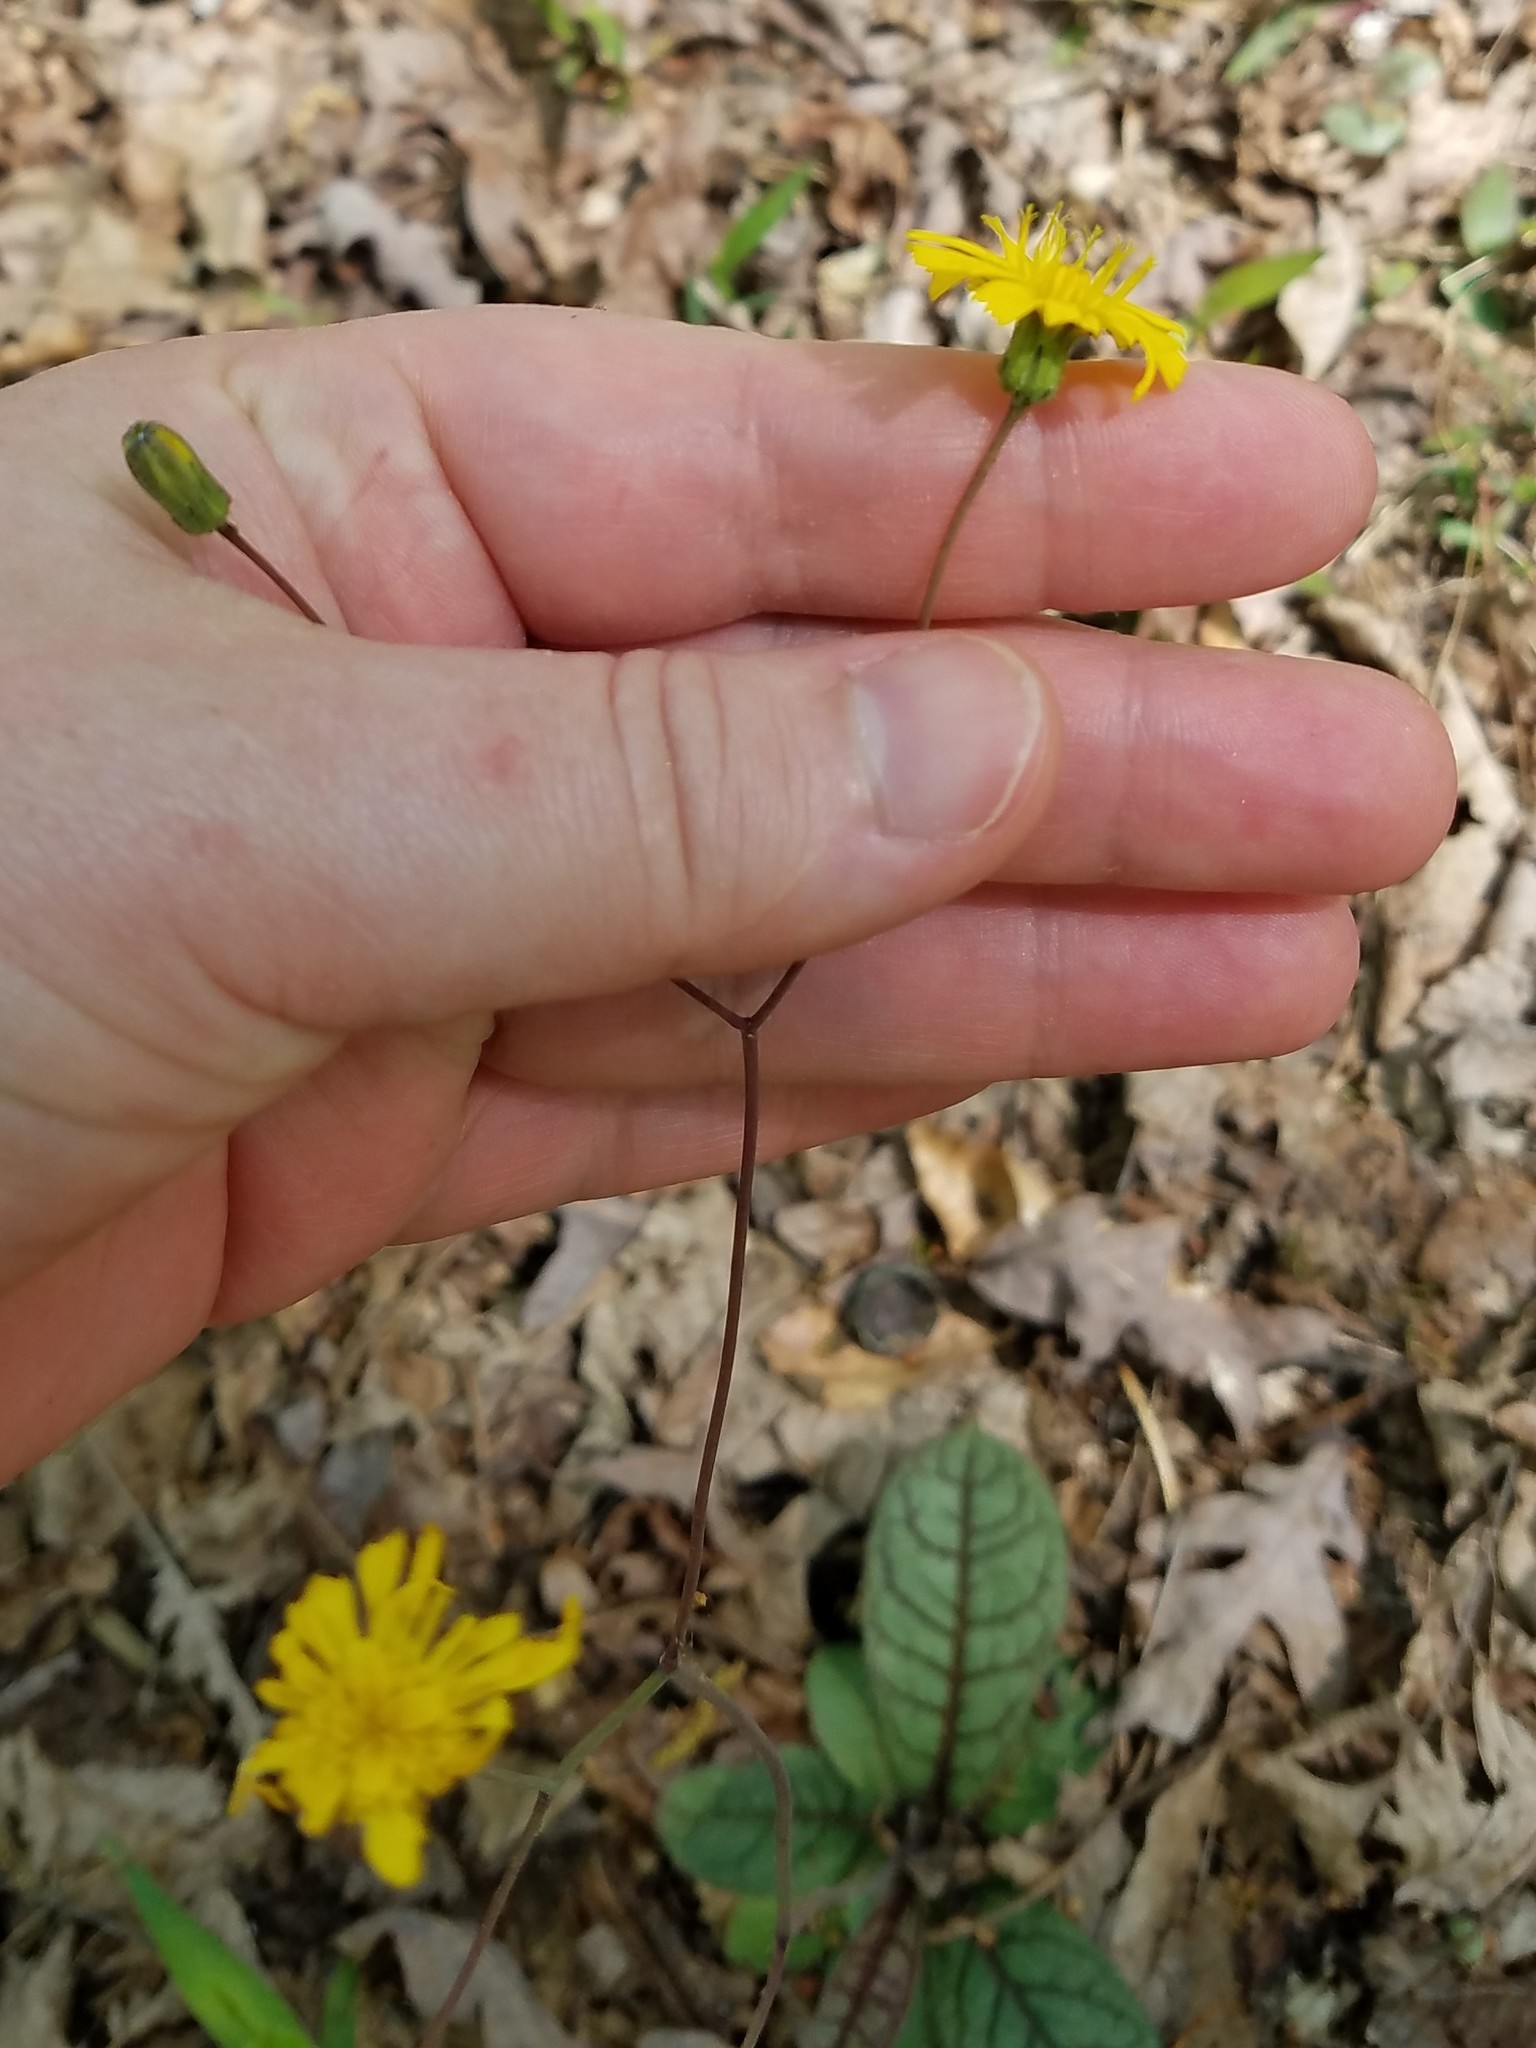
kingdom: Plantae
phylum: Tracheophyta
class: Magnoliopsida
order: Asterales
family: Asteraceae
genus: Hieracium
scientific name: Hieracium venosum
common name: Rattlesnake hawkweed
